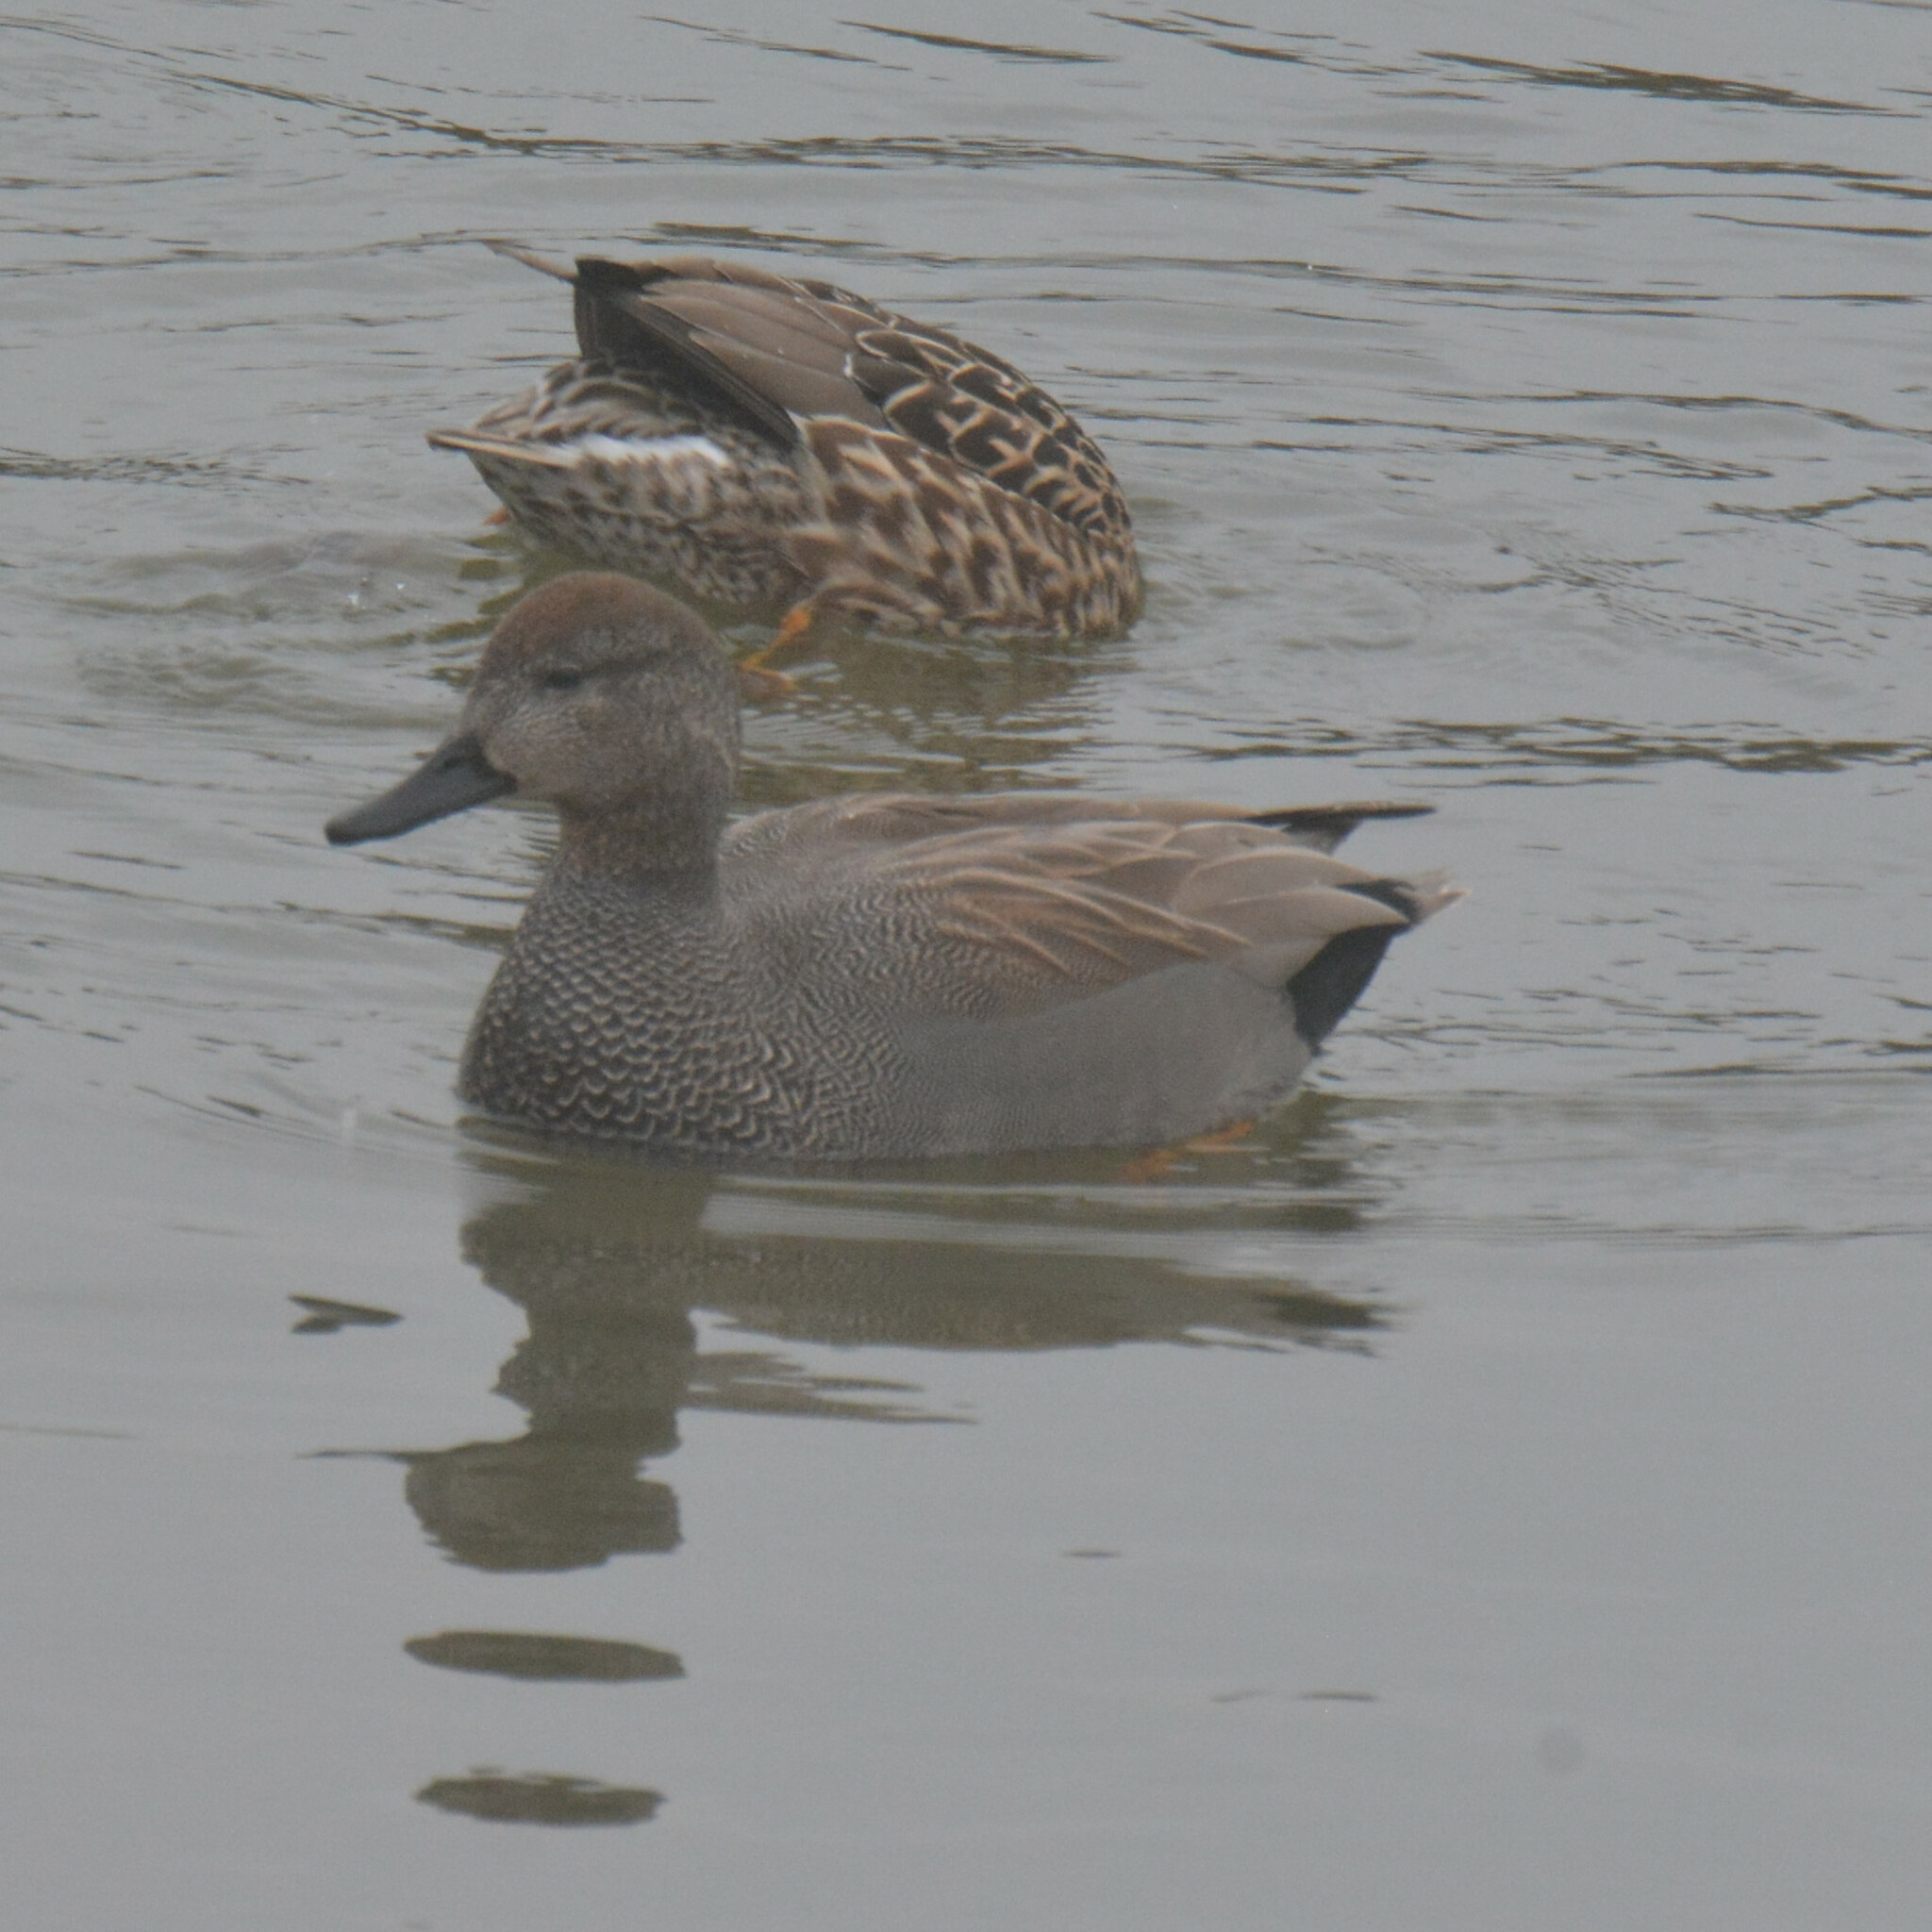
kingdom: Animalia
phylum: Chordata
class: Aves
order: Anseriformes
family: Anatidae
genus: Mareca
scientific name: Mareca strepera
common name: Gadwall
